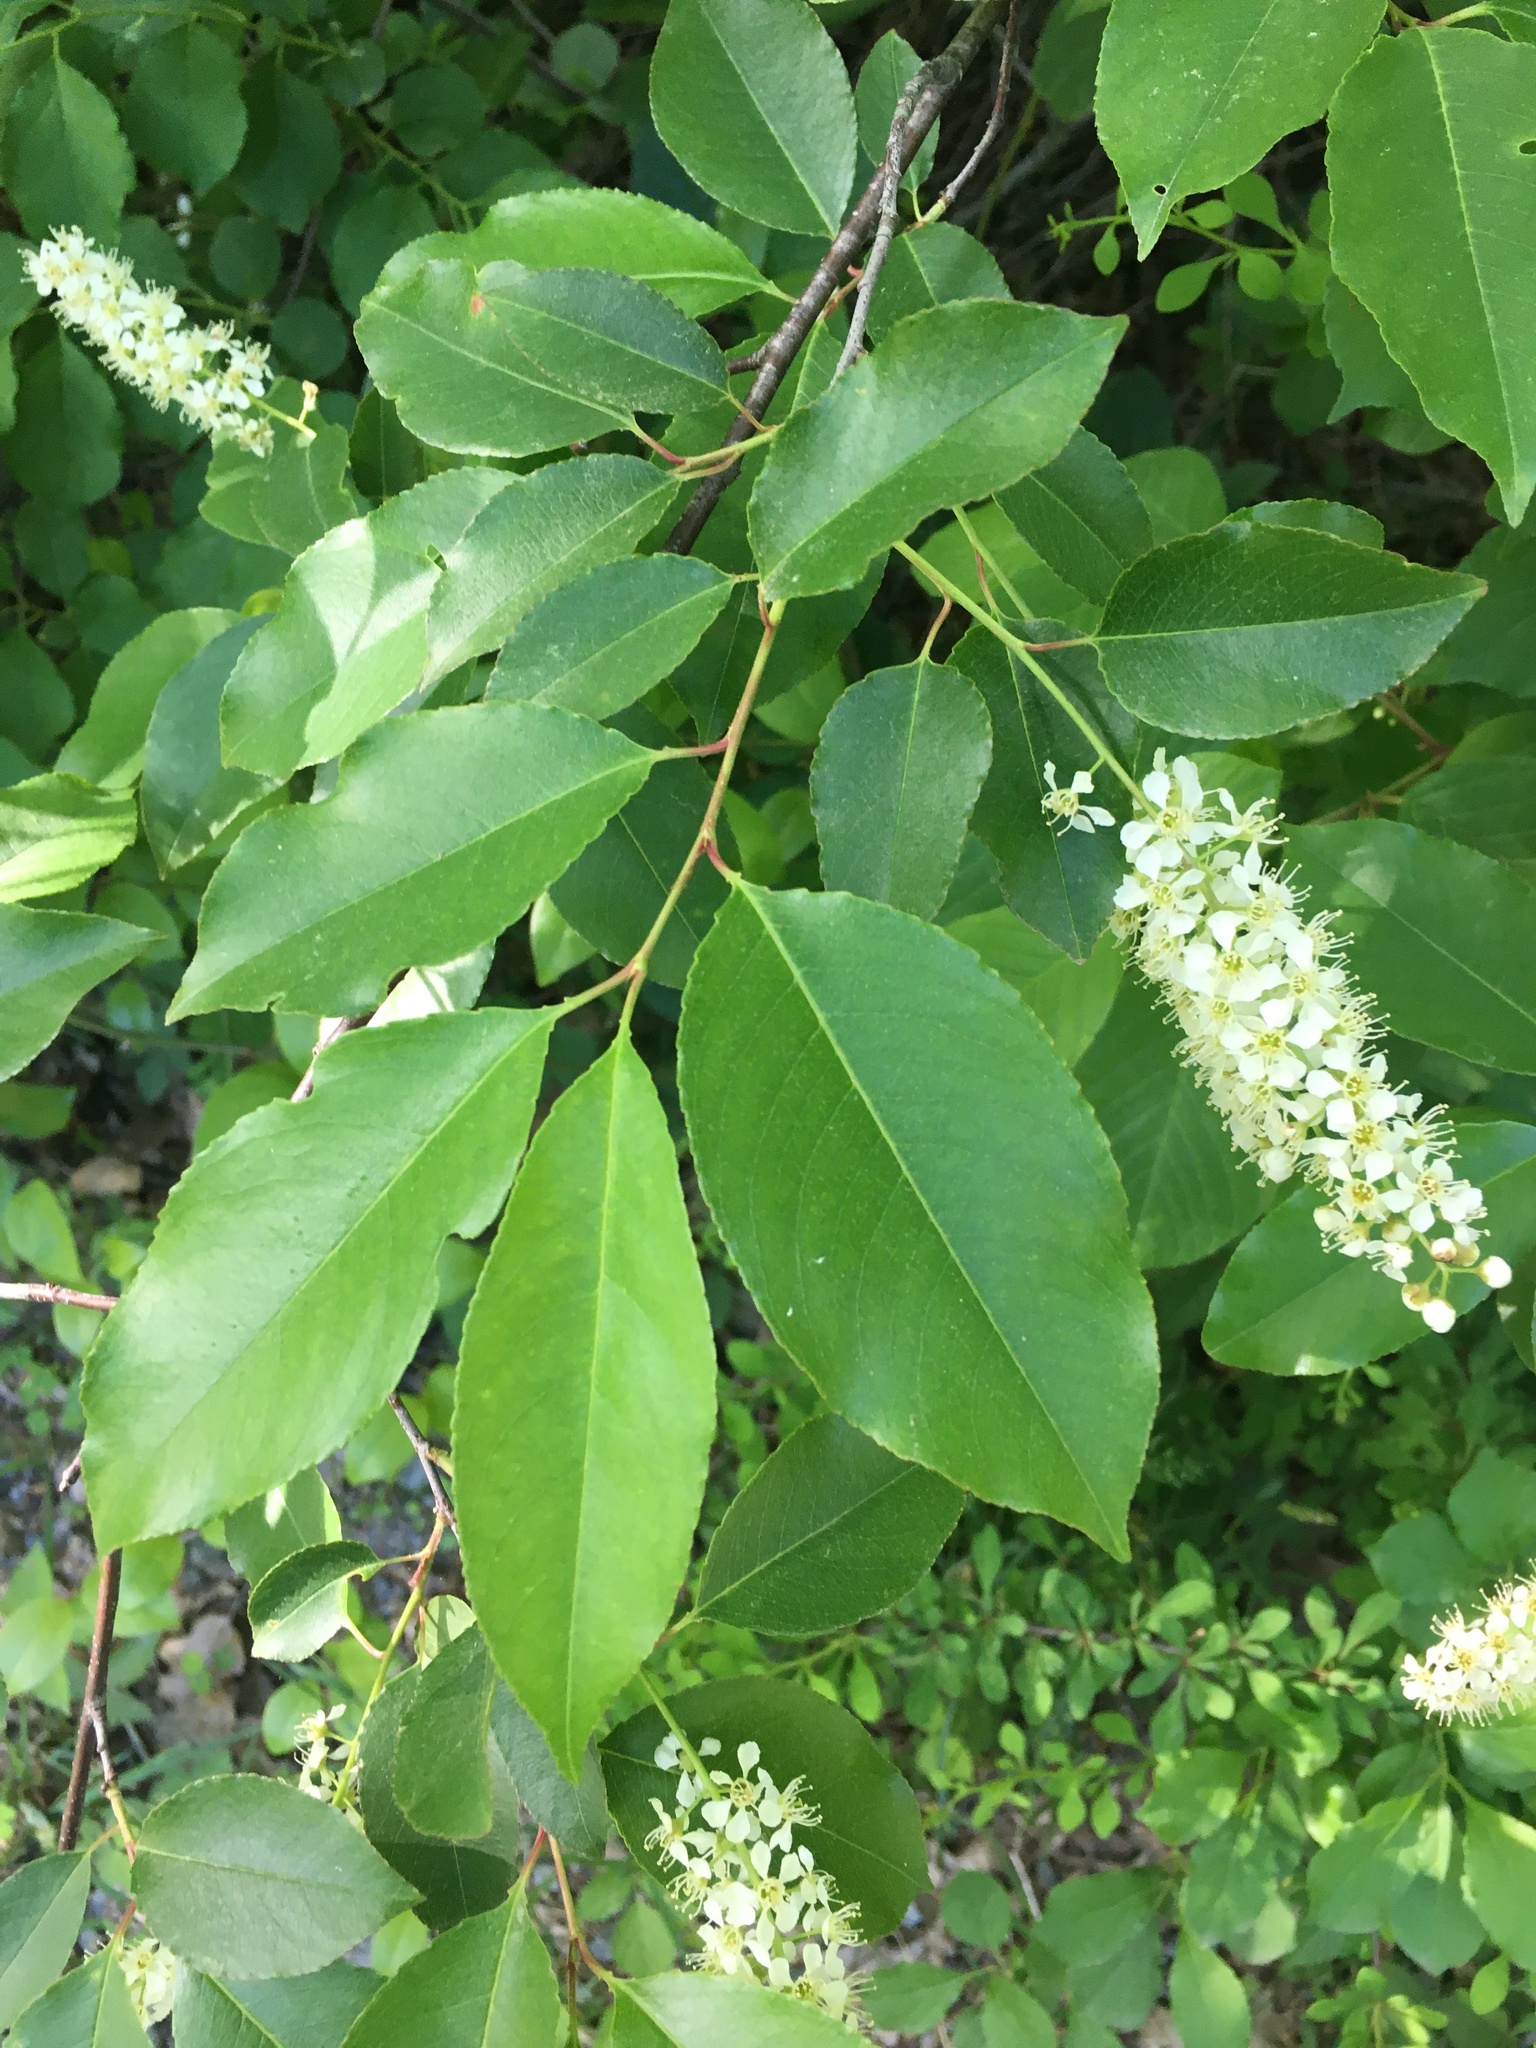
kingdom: Plantae
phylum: Tracheophyta
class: Magnoliopsida
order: Rosales
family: Rosaceae
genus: Prunus
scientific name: Prunus serotina
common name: Black cherry
